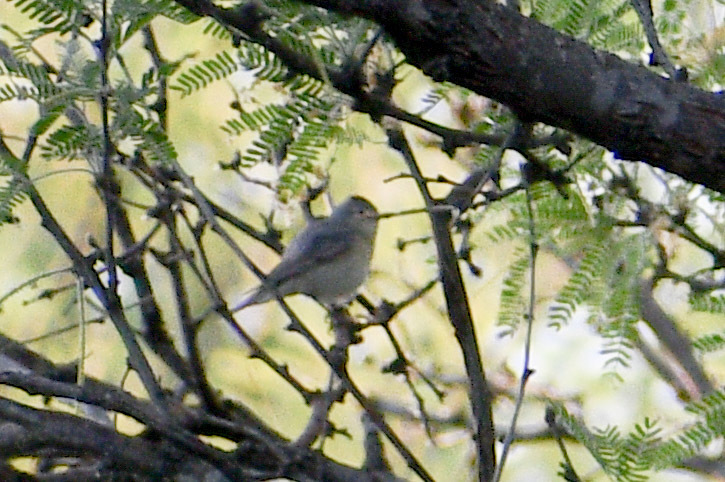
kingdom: Animalia
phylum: Chordata
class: Aves
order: Passeriformes
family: Parulidae
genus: Leiothlypis
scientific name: Leiothlypis luciae
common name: Lucy's warbler
